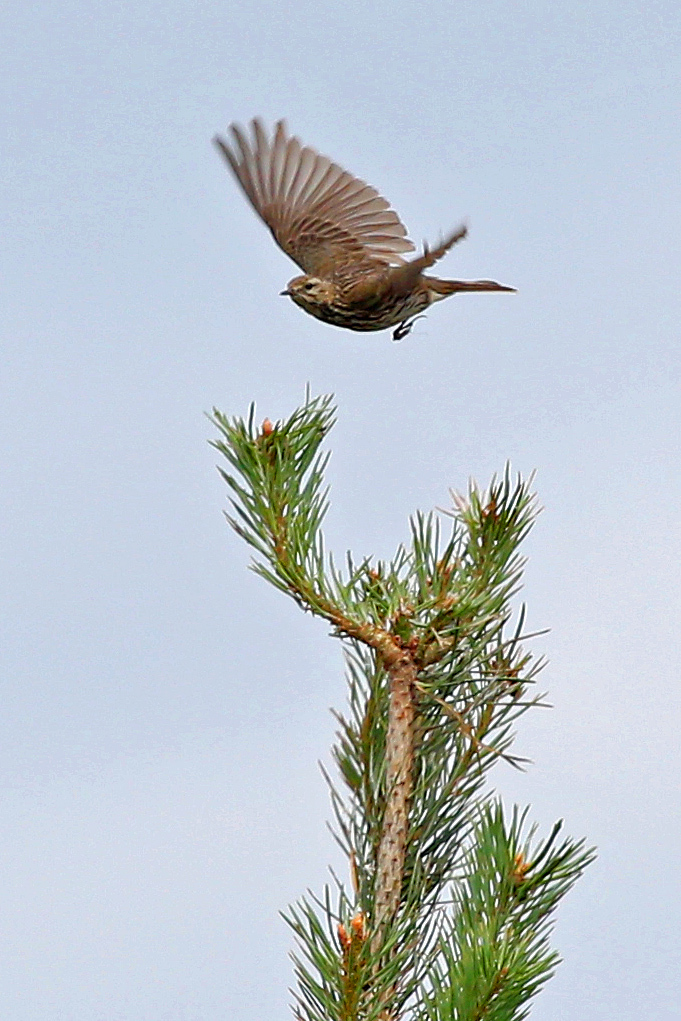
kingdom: Animalia
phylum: Chordata
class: Aves
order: Passeriformes
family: Motacillidae
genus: Anthus
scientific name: Anthus pratensis
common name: Meadow pipit
